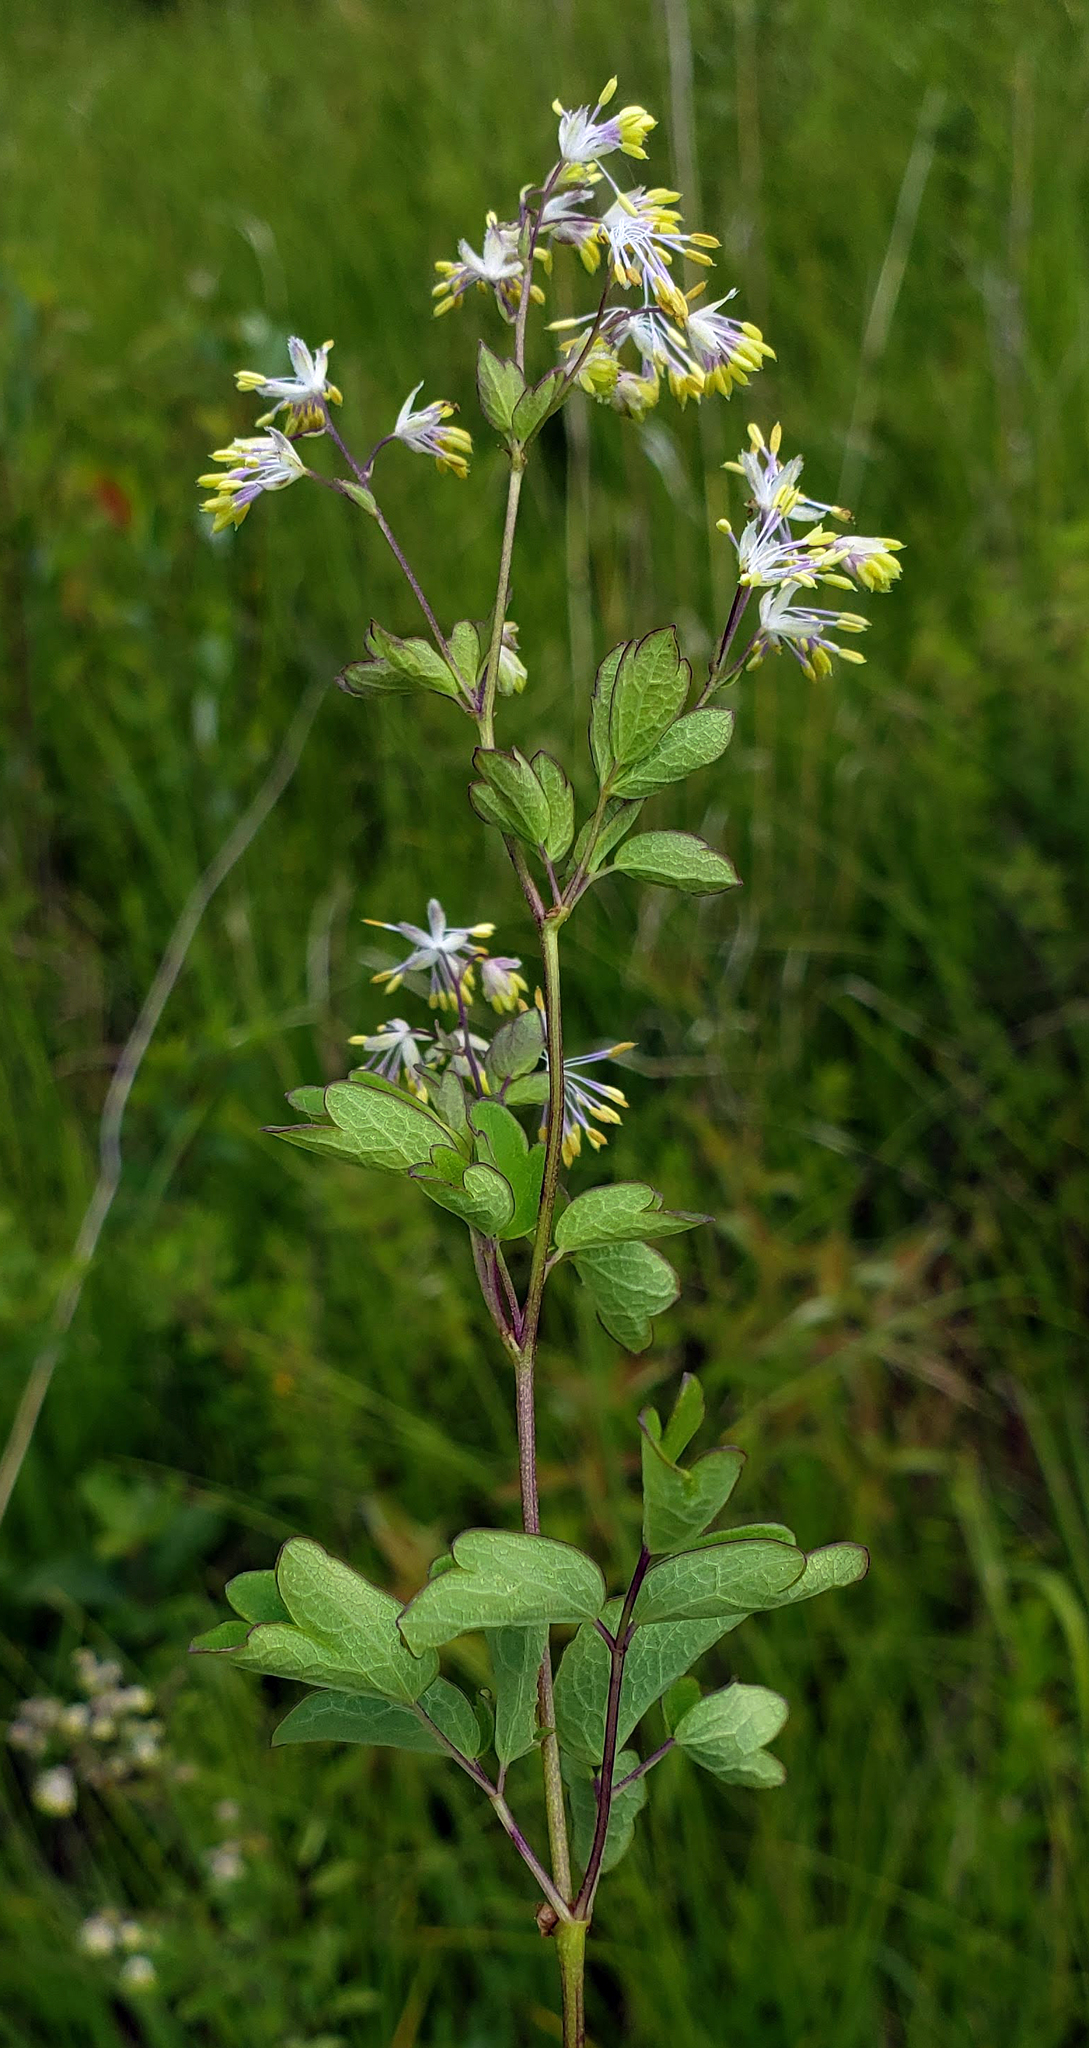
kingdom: Plantae
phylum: Tracheophyta
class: Magnoliopsida
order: Ranunculales
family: Ranunculaceae
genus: Thalictrum
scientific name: Thalictrum dasycarpum
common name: Purple meadow-rue
